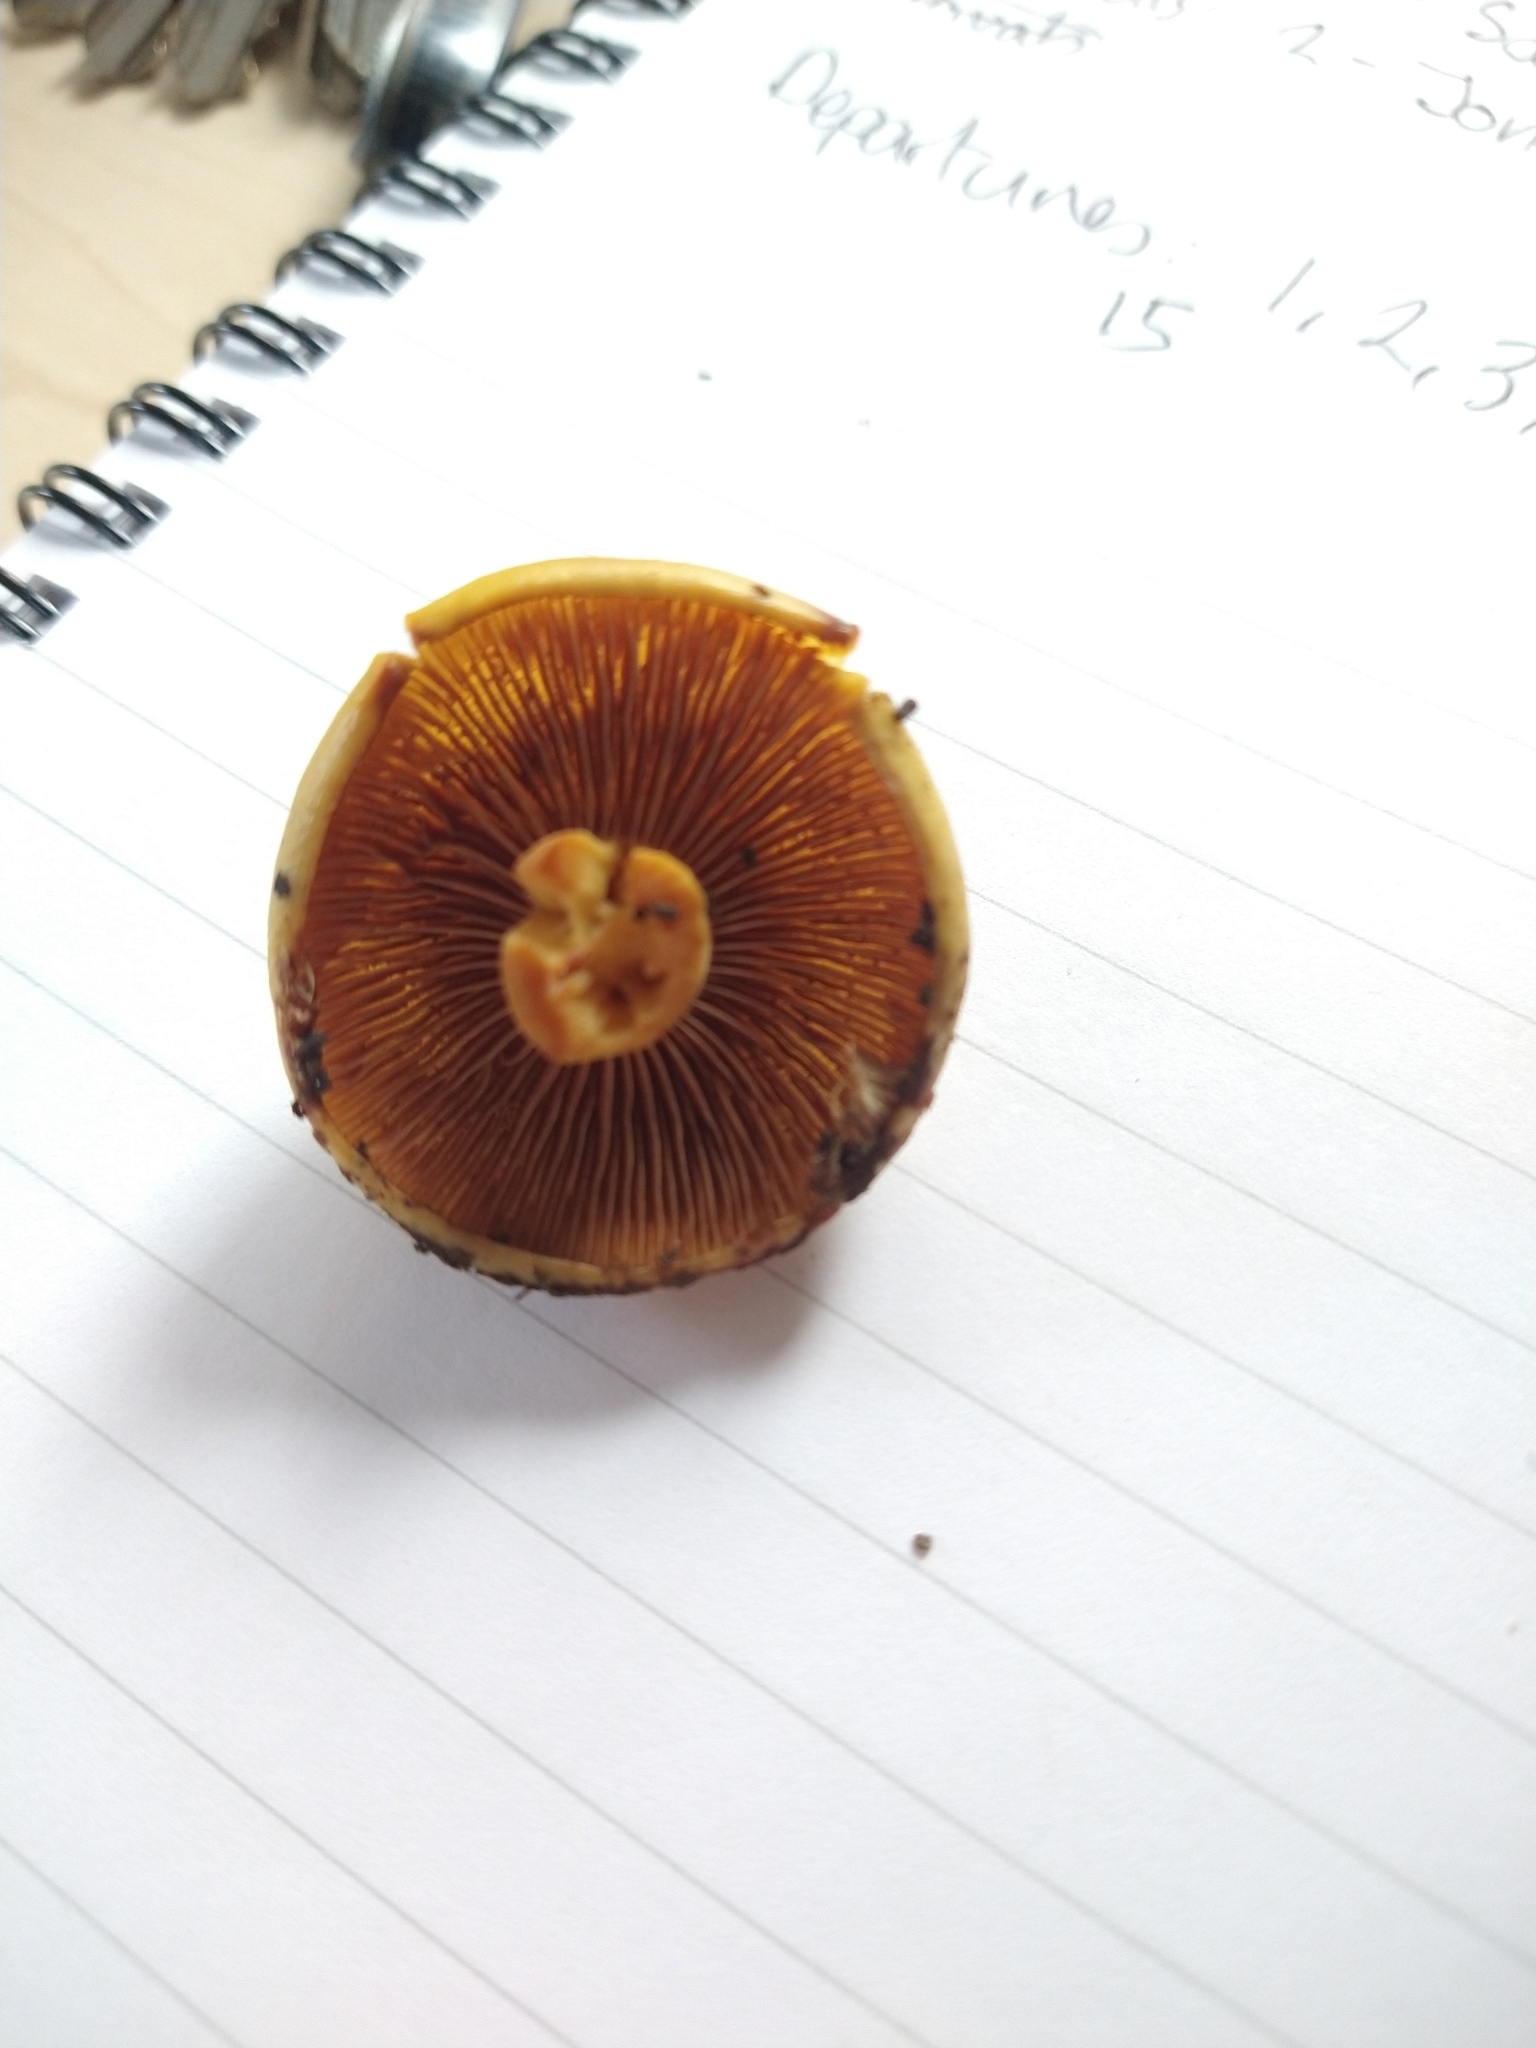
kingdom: Fungi
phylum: Basidiomycota
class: Agaricomycetes
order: Agaricales
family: Hymenogastraceae
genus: Flammula
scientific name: Flammula alnicola
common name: Alder scalycap
